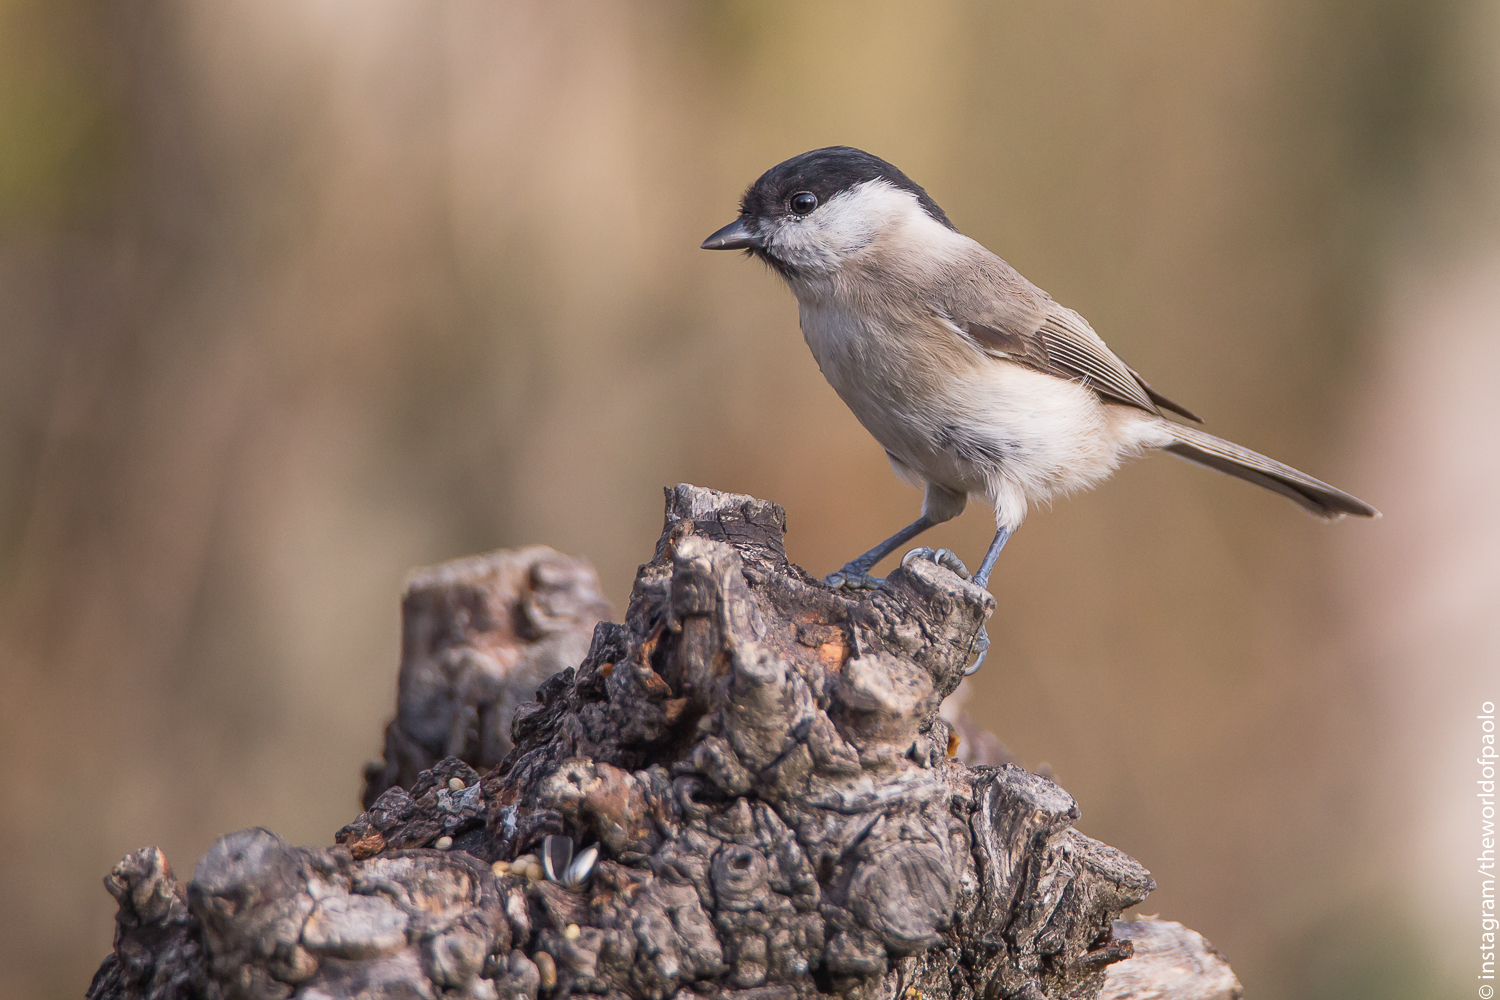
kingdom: Animalia
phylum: Chordata
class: Aves
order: Passeriformes
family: Paridae
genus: Poecile
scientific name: Poecile palustris
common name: Marsh tit
